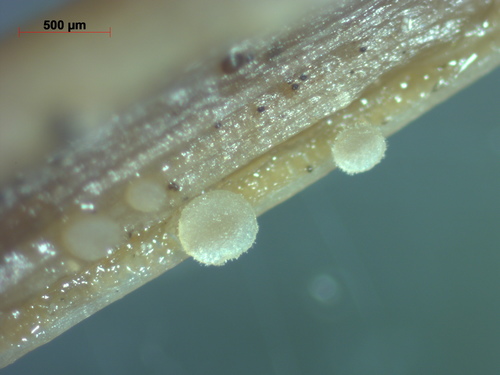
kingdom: Fungi
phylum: Ascomycota
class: Leotiomycetes
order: Helotiales
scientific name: Helotiales
